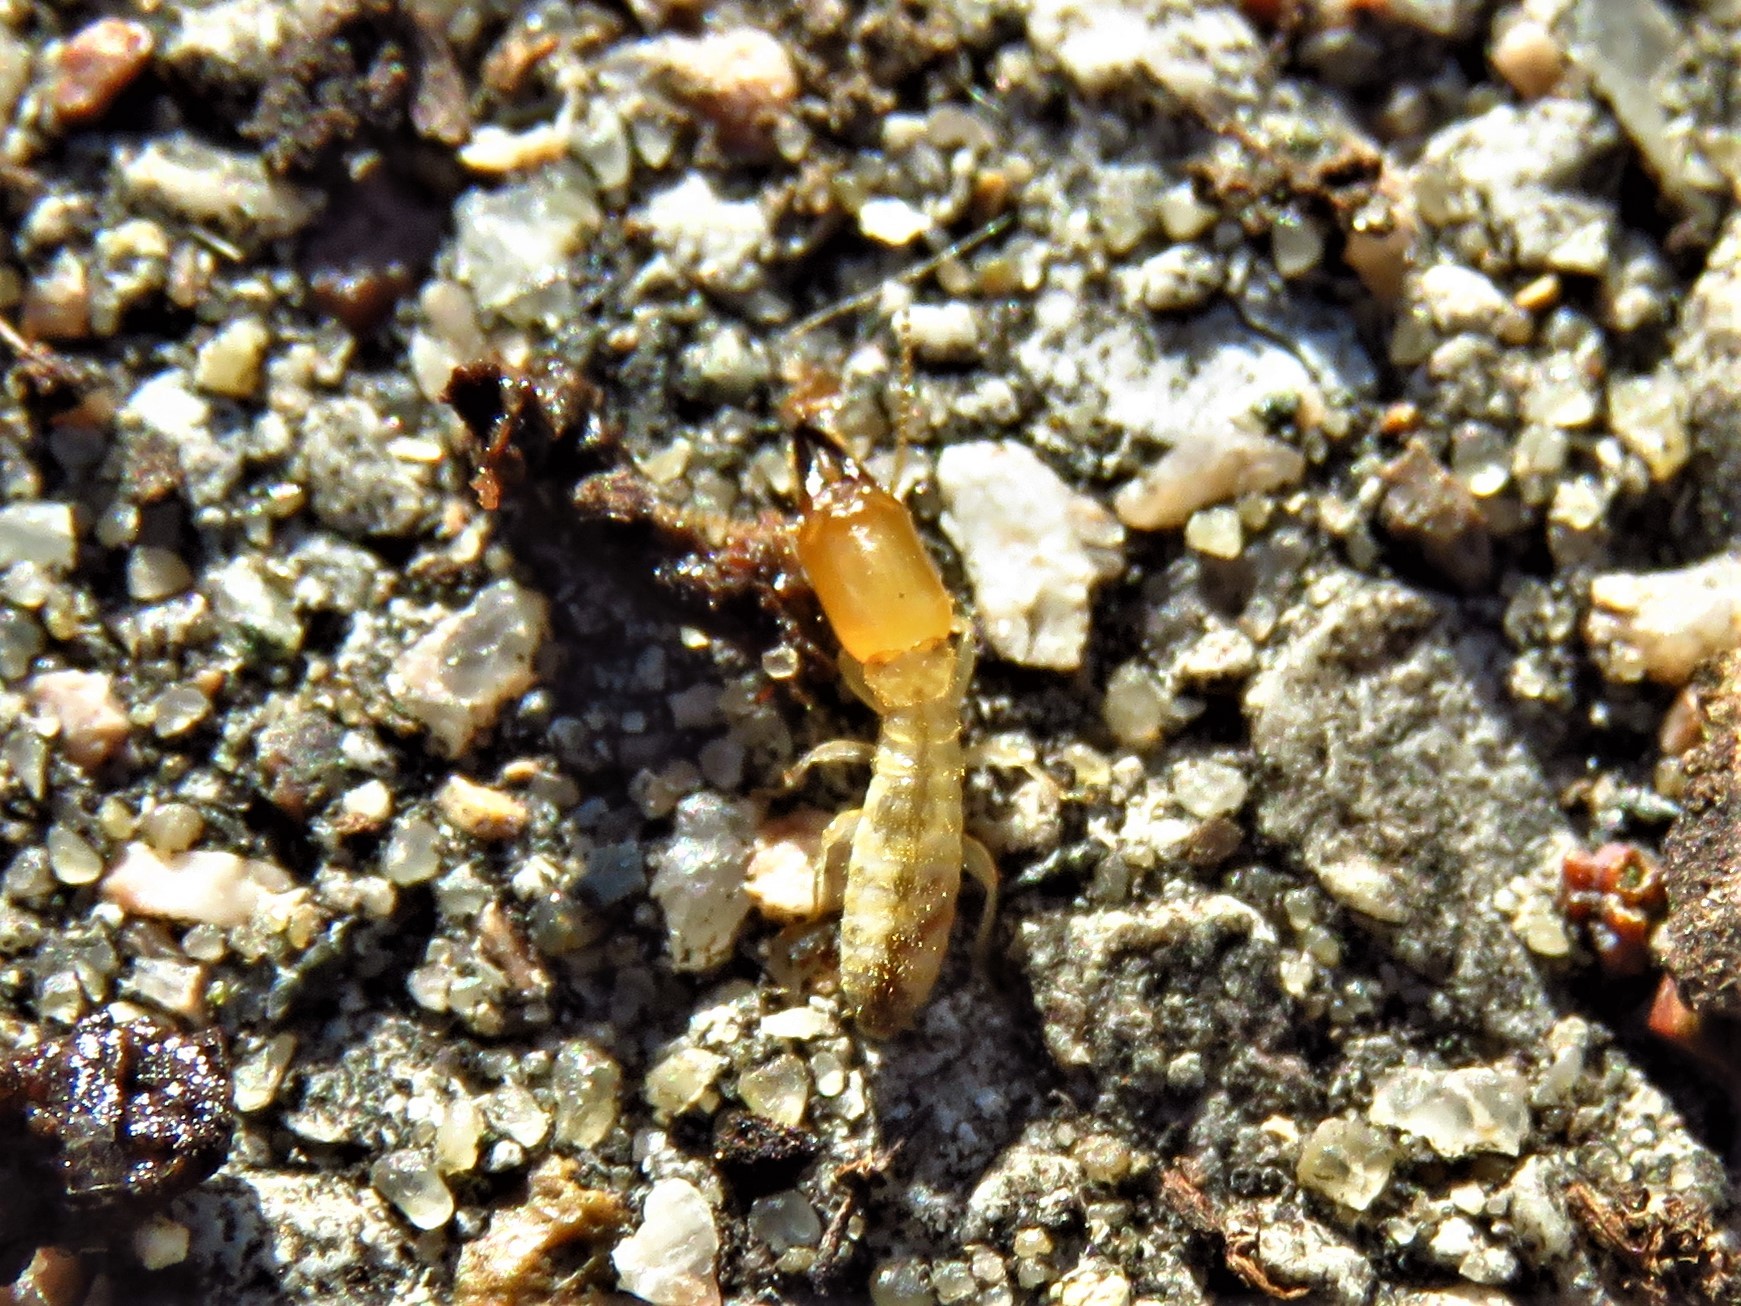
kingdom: Animalia
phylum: Arthropoda
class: Insecta
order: Blattodea
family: Rhinotermitidae
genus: Reticulitermes
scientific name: Reticulitermes flavipes
